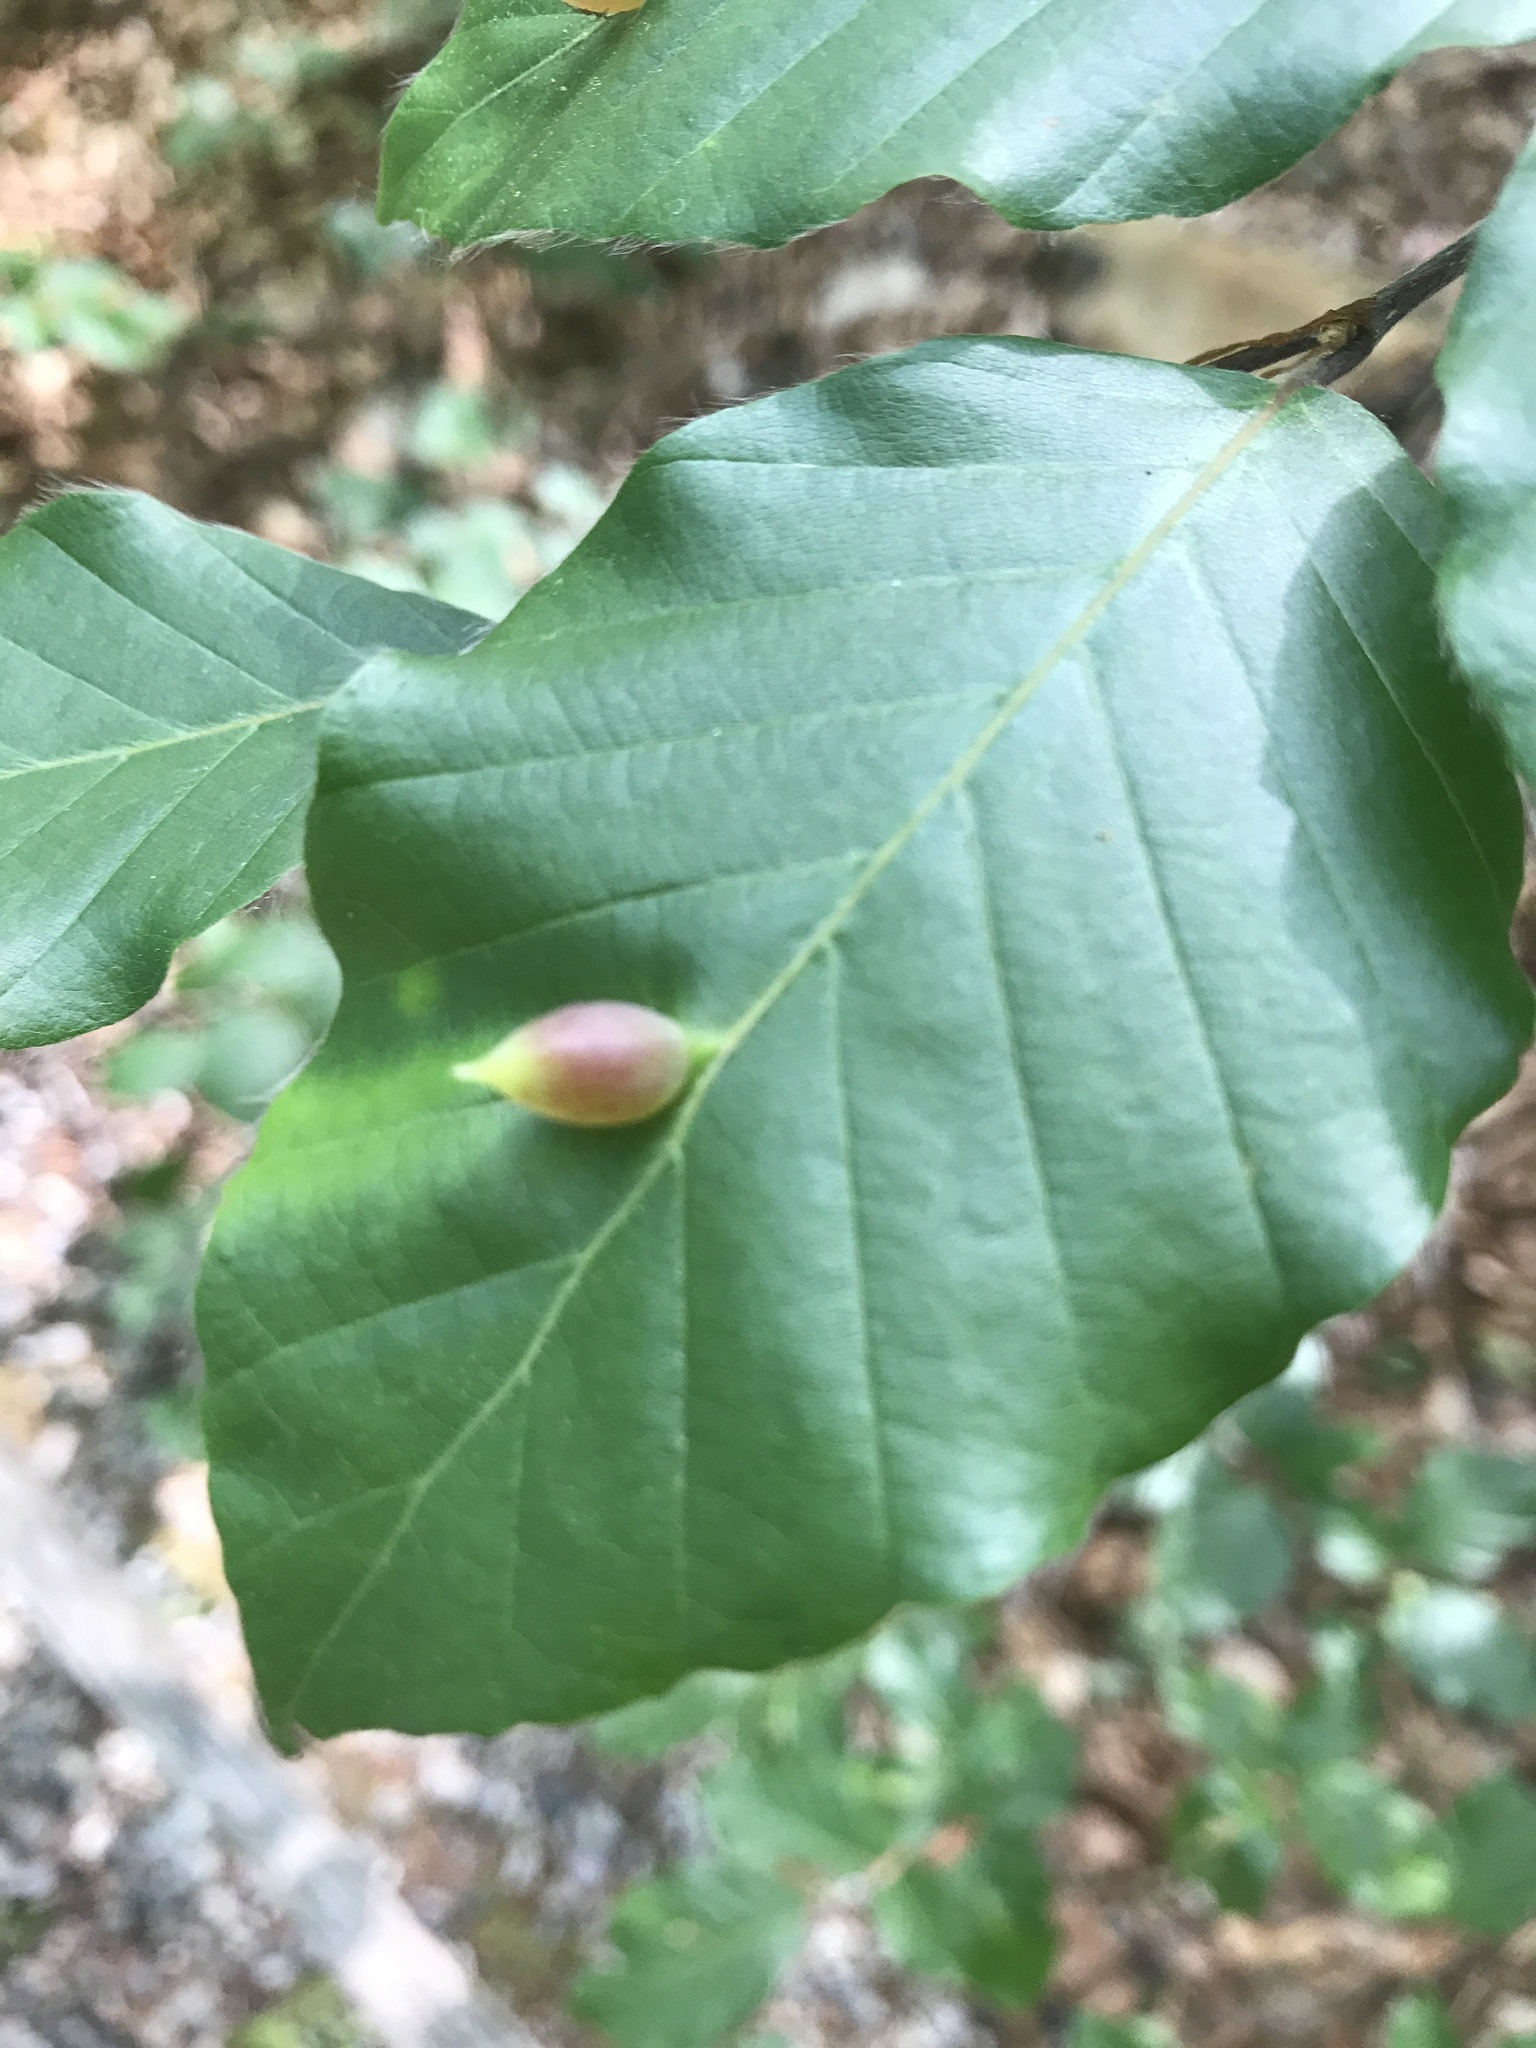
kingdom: Animalia
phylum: Arthropoda
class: Insecta
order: Diptera
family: Cecidomyiidae
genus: Mikiola
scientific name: Mikiola fagi
